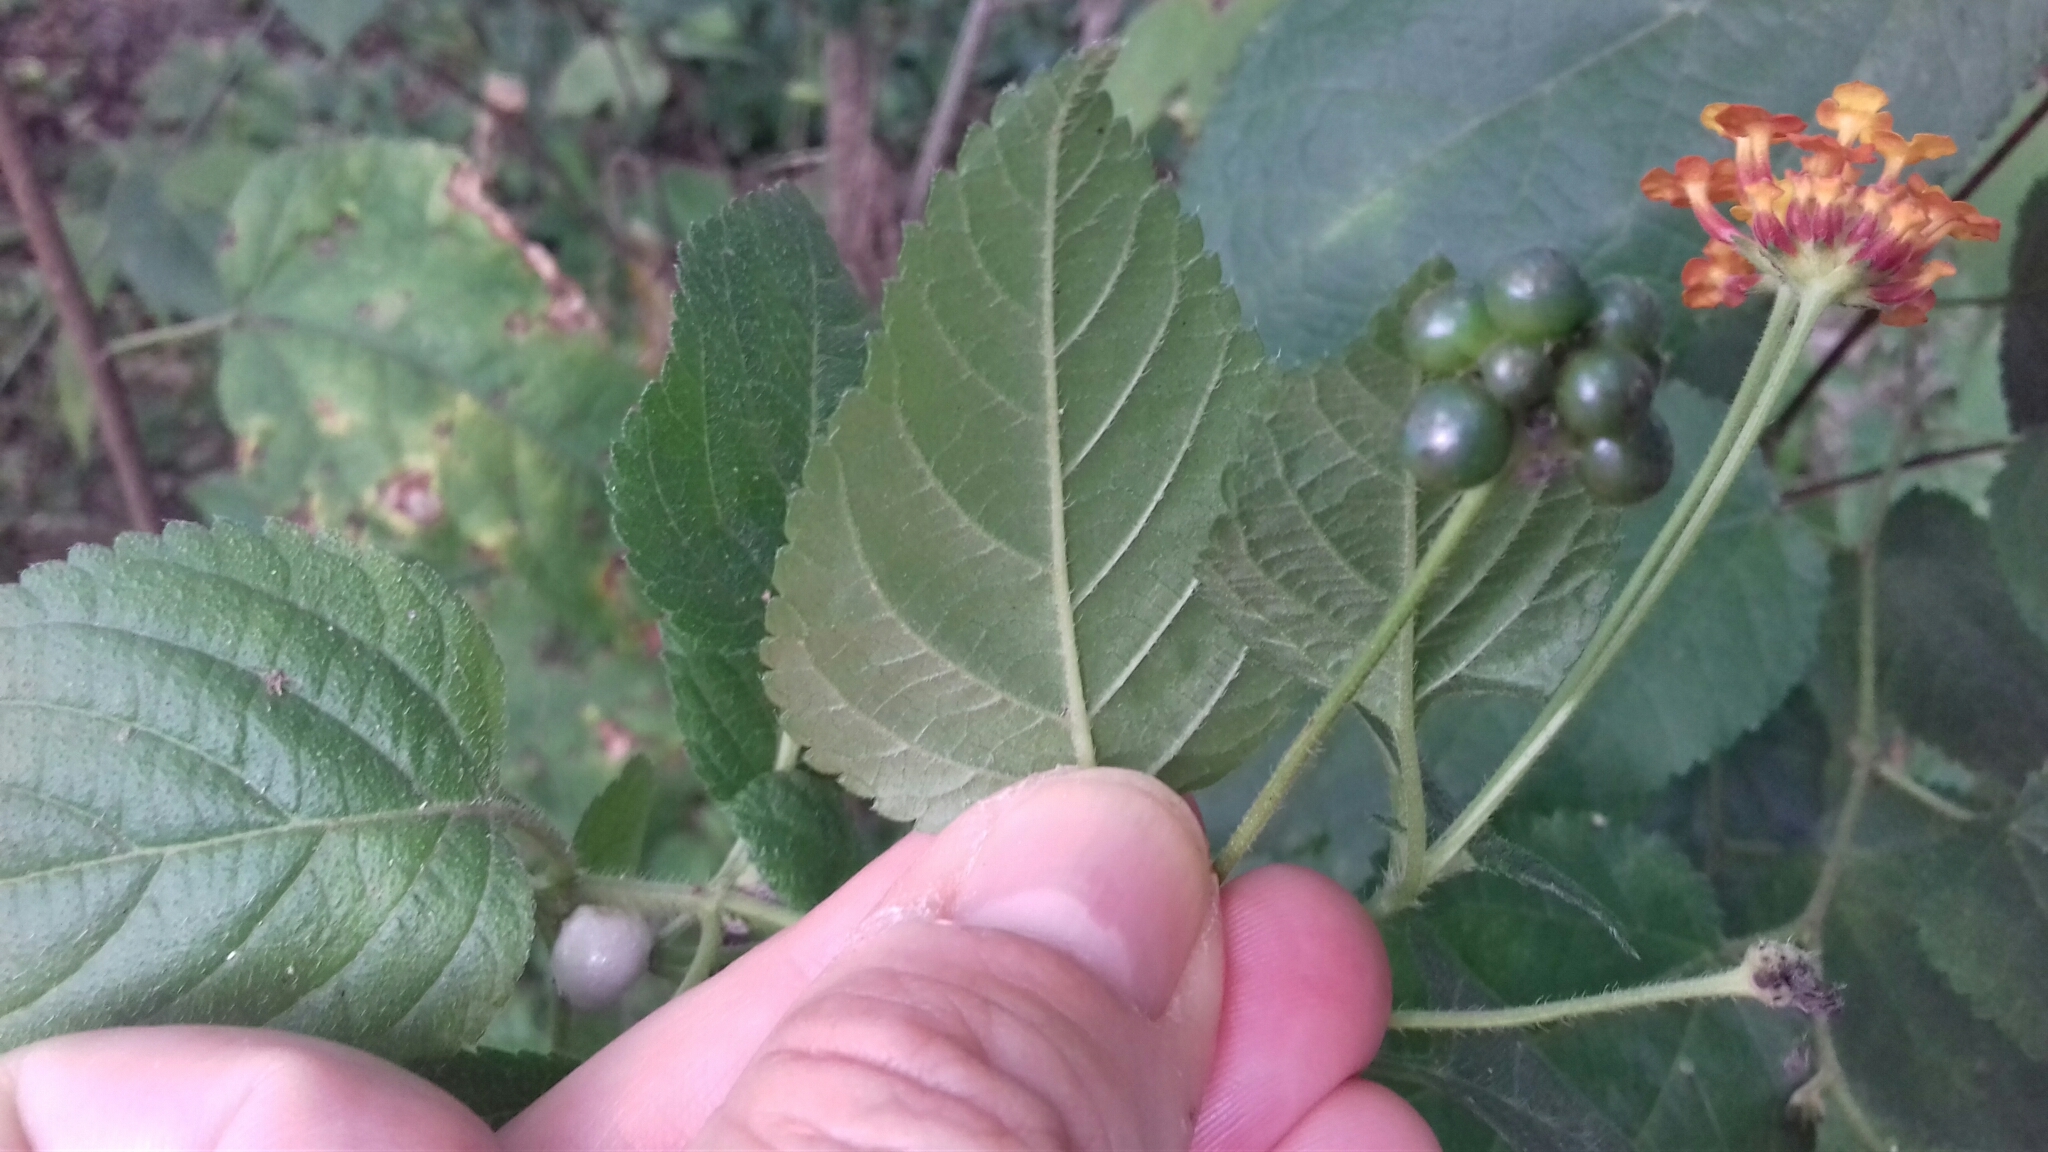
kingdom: Plantae
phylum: Tracheophyta
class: Magnoliopsida
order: Lamiales
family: Verbenaceae
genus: Lantana
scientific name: Lantana camara
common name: Lantana
